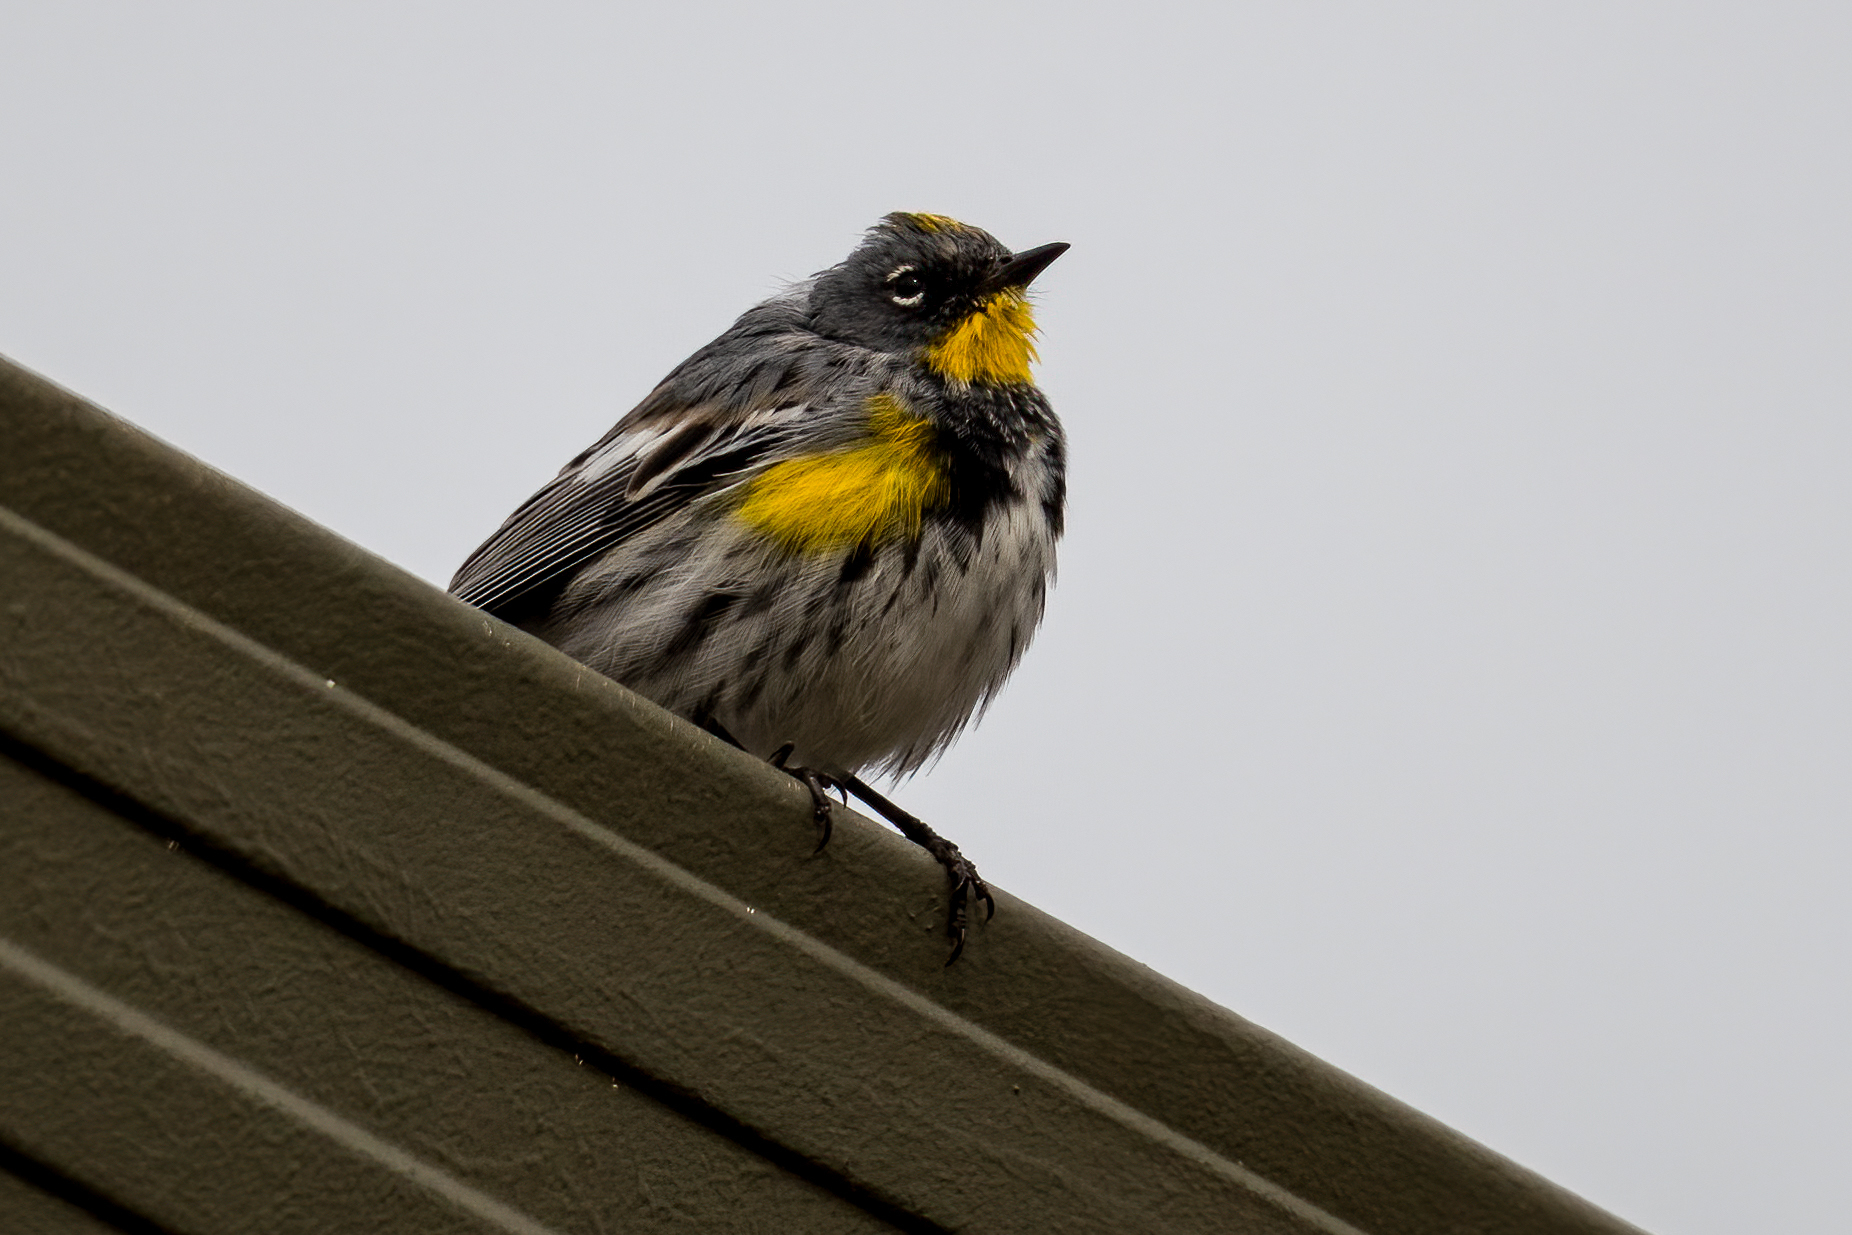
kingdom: Animalia
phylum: Chordata
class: Aves
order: Passeriformes
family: Parulidae
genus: Setophaga
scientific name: Setophaga auduboni
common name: Audubon's warbler
